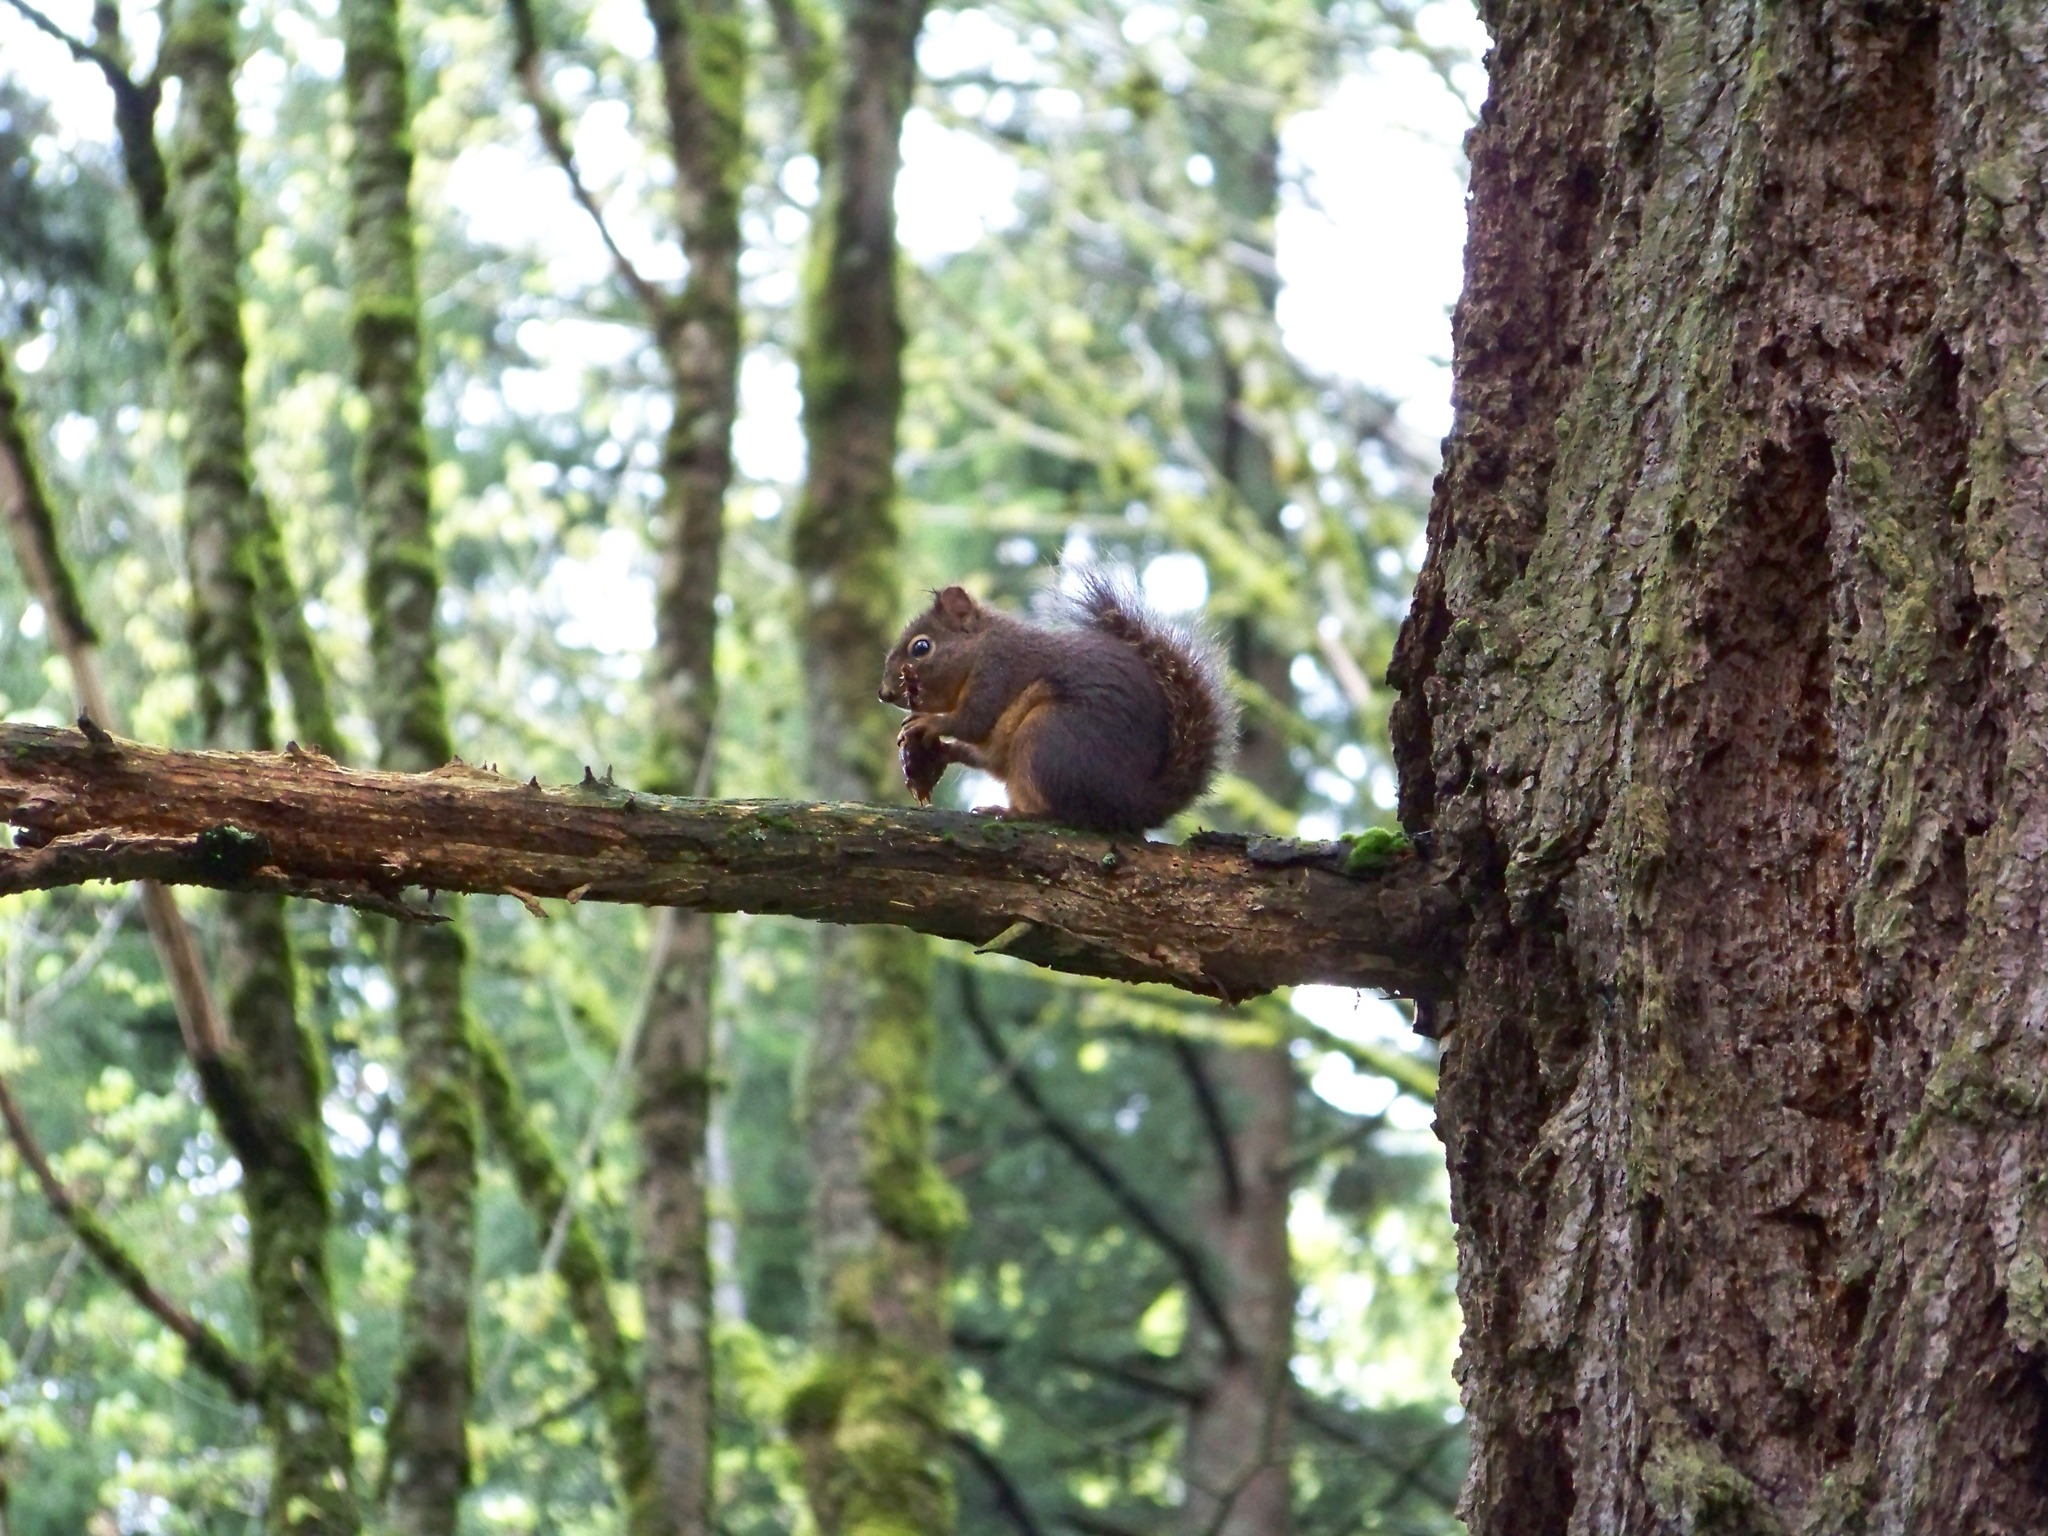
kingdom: Animalia
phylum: Chordata
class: Mammalia
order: Rodentia
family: Sciuridae
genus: Tamiasciurus
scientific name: Tamiasciurus douglasii
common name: Douglas's squirrel
